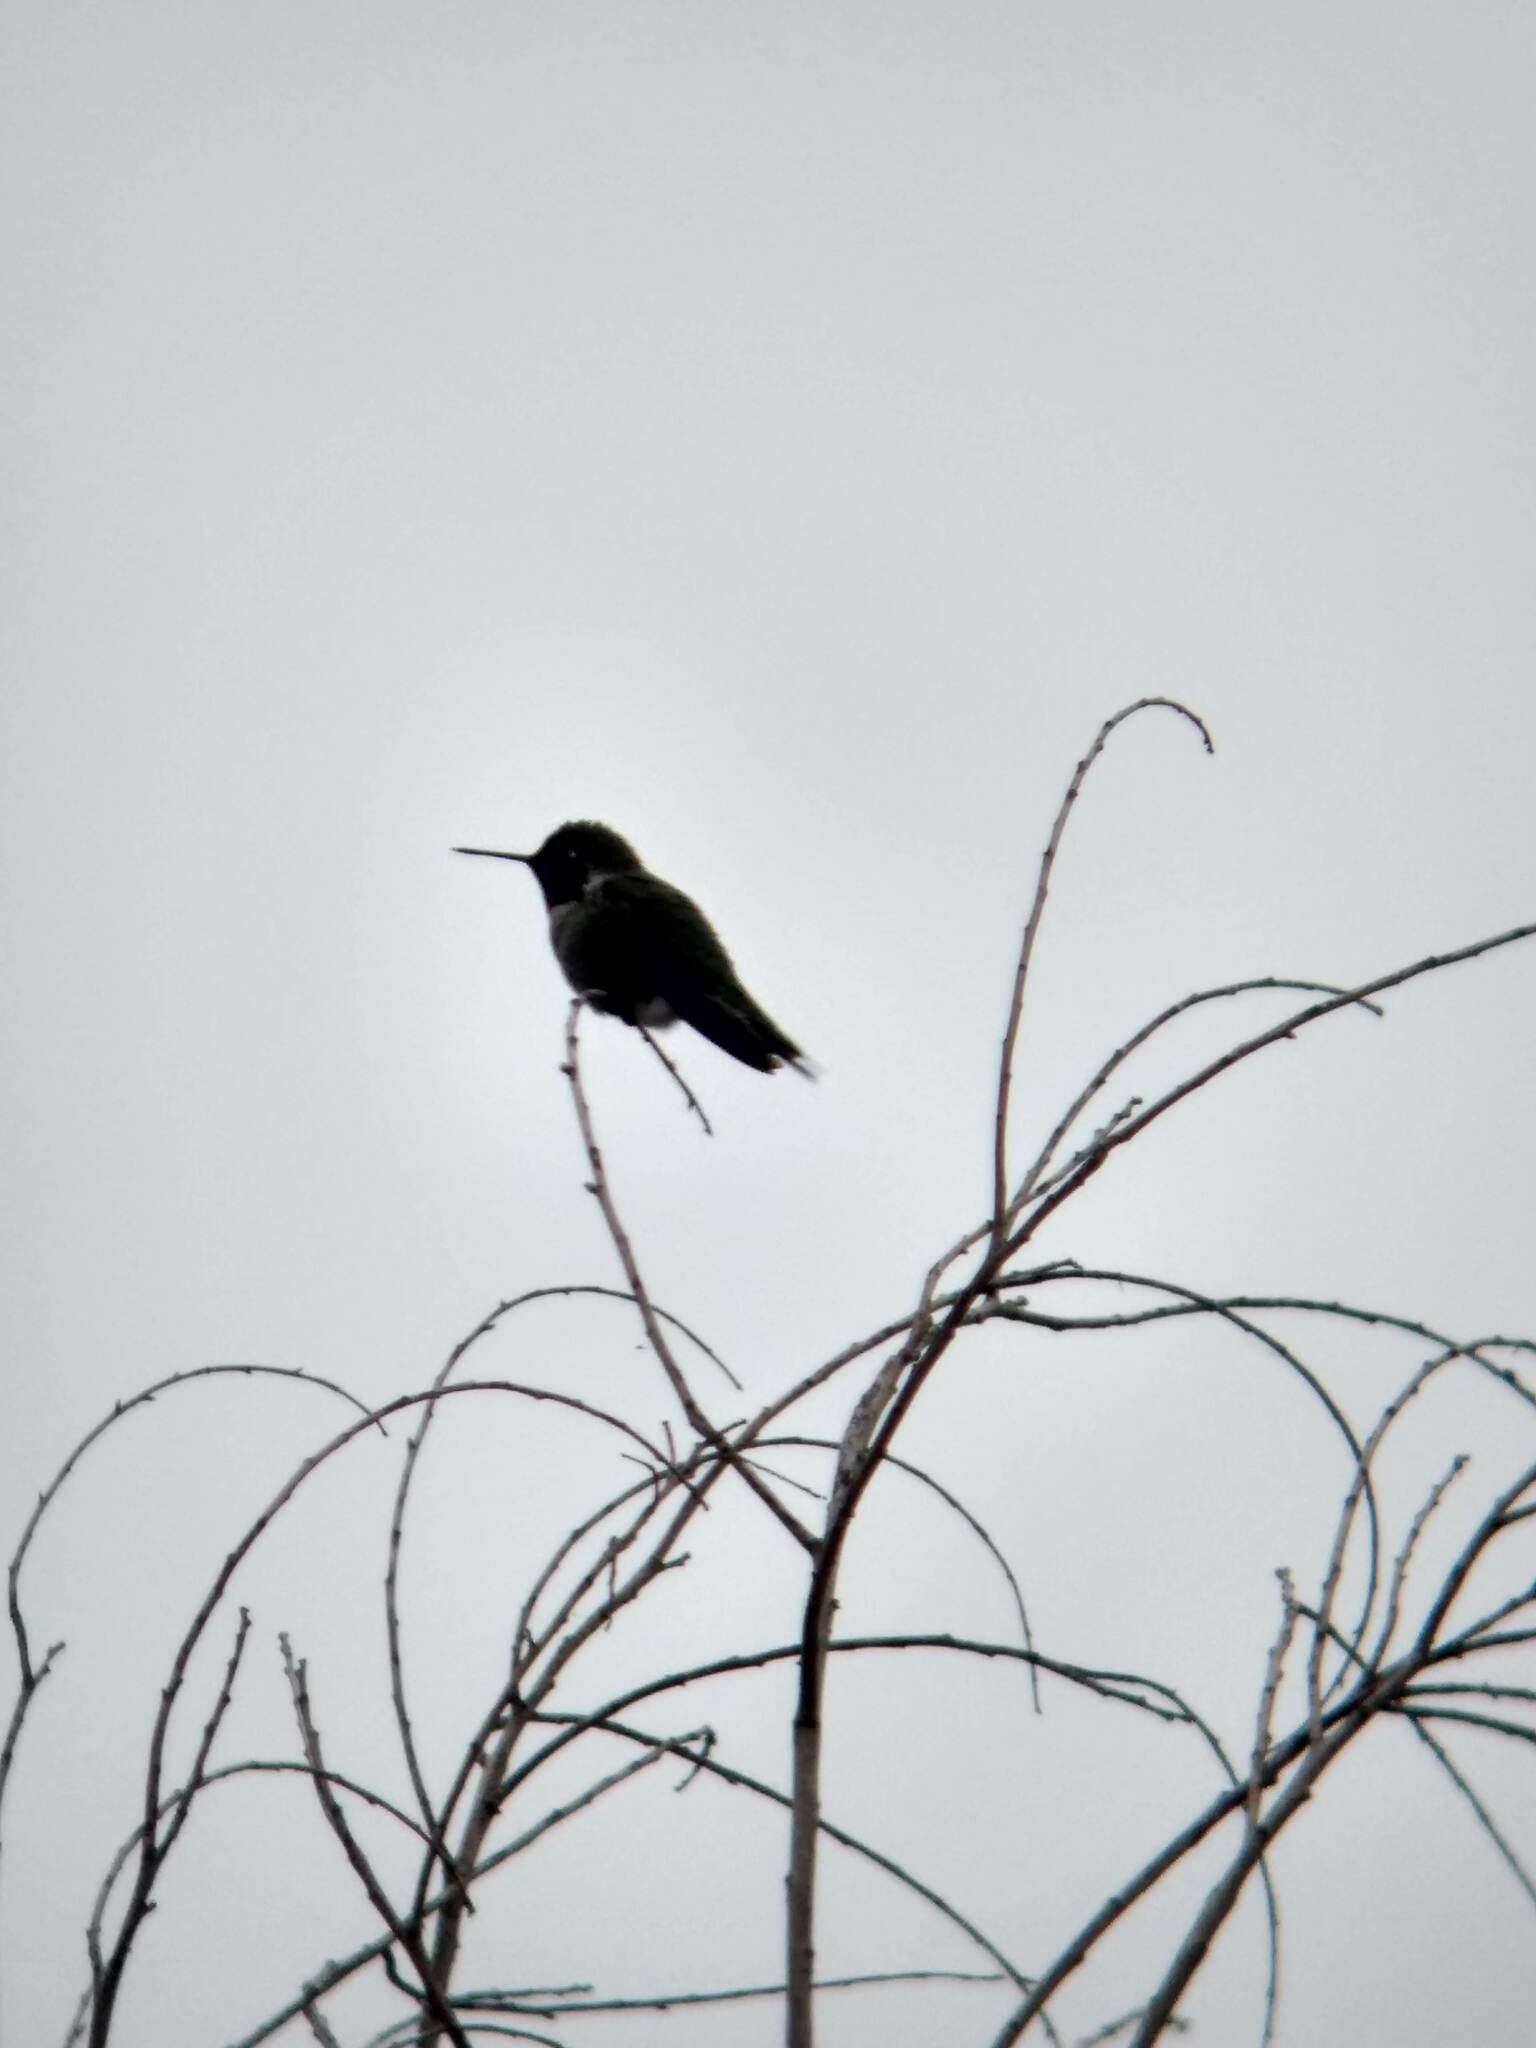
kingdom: Animalia
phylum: Chordata
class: Aves
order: Apodiformes
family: Trochilidae
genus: Calypte
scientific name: Calypte anna
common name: Anna's hummingbird
